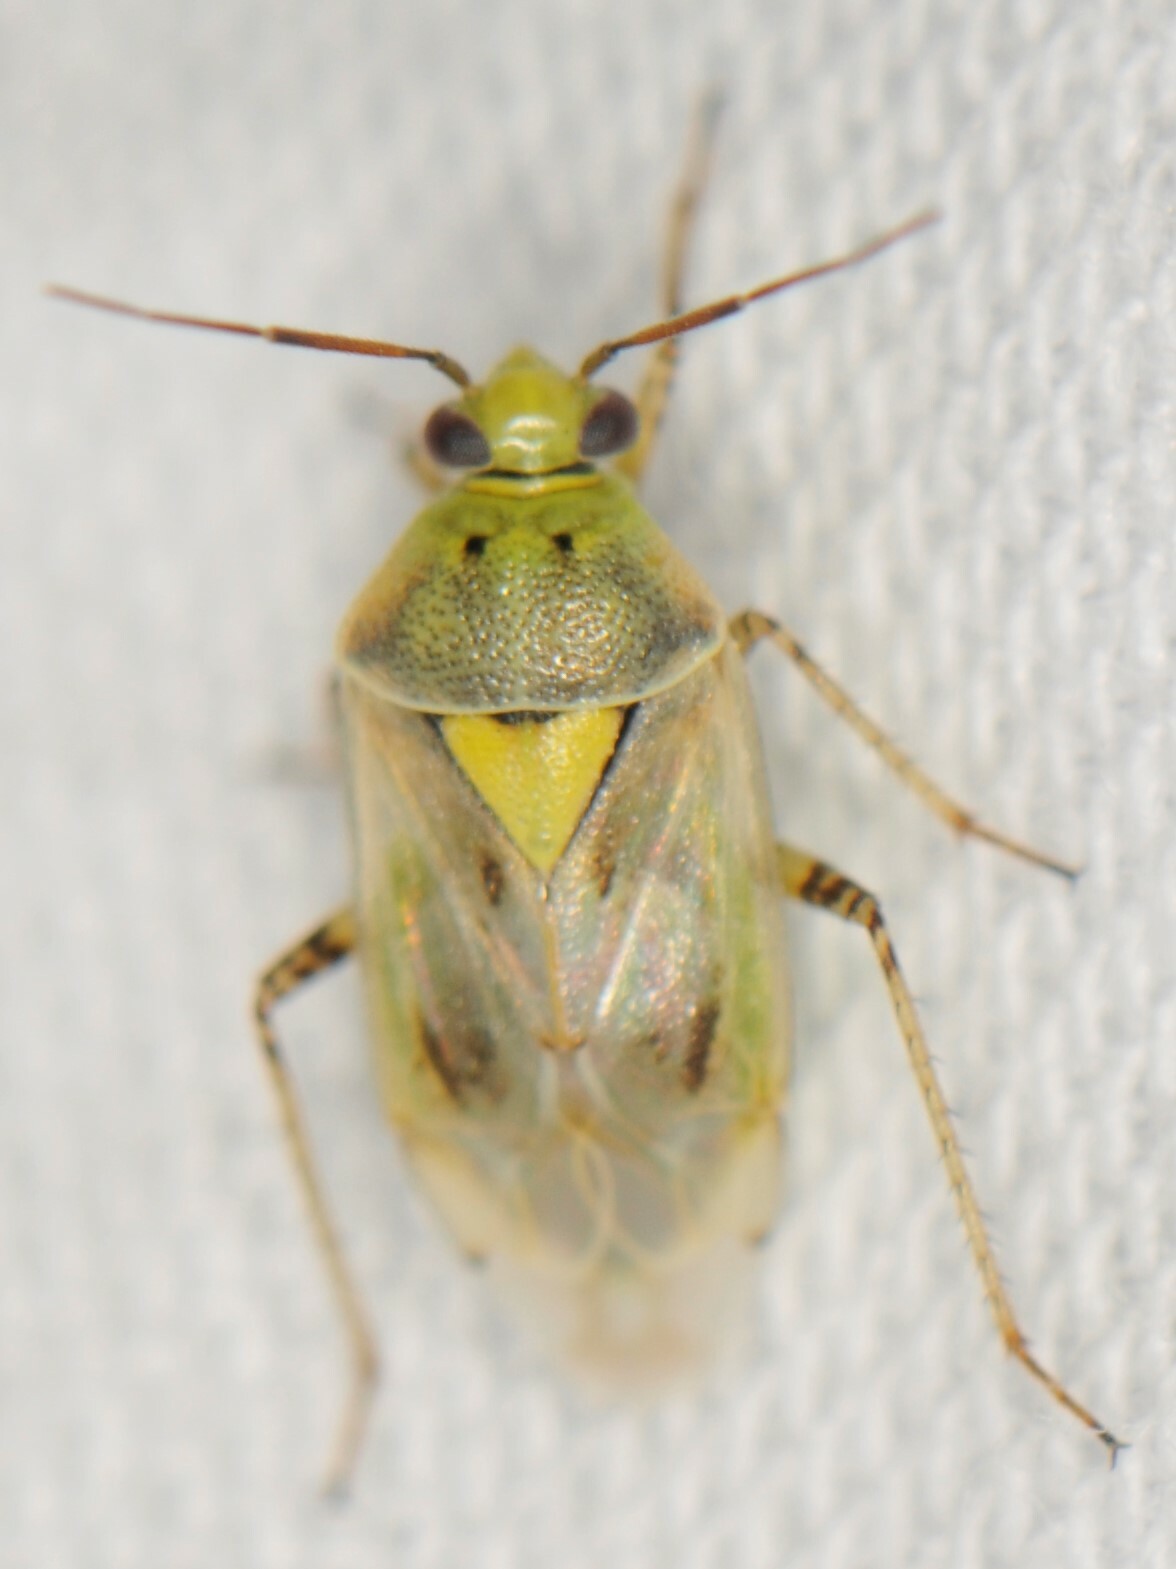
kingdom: Animalia
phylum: Arthropoda
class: Insecta
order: Hemiptera
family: Miridae
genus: Lygus
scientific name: Lygus elisus
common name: Pale legume bug
